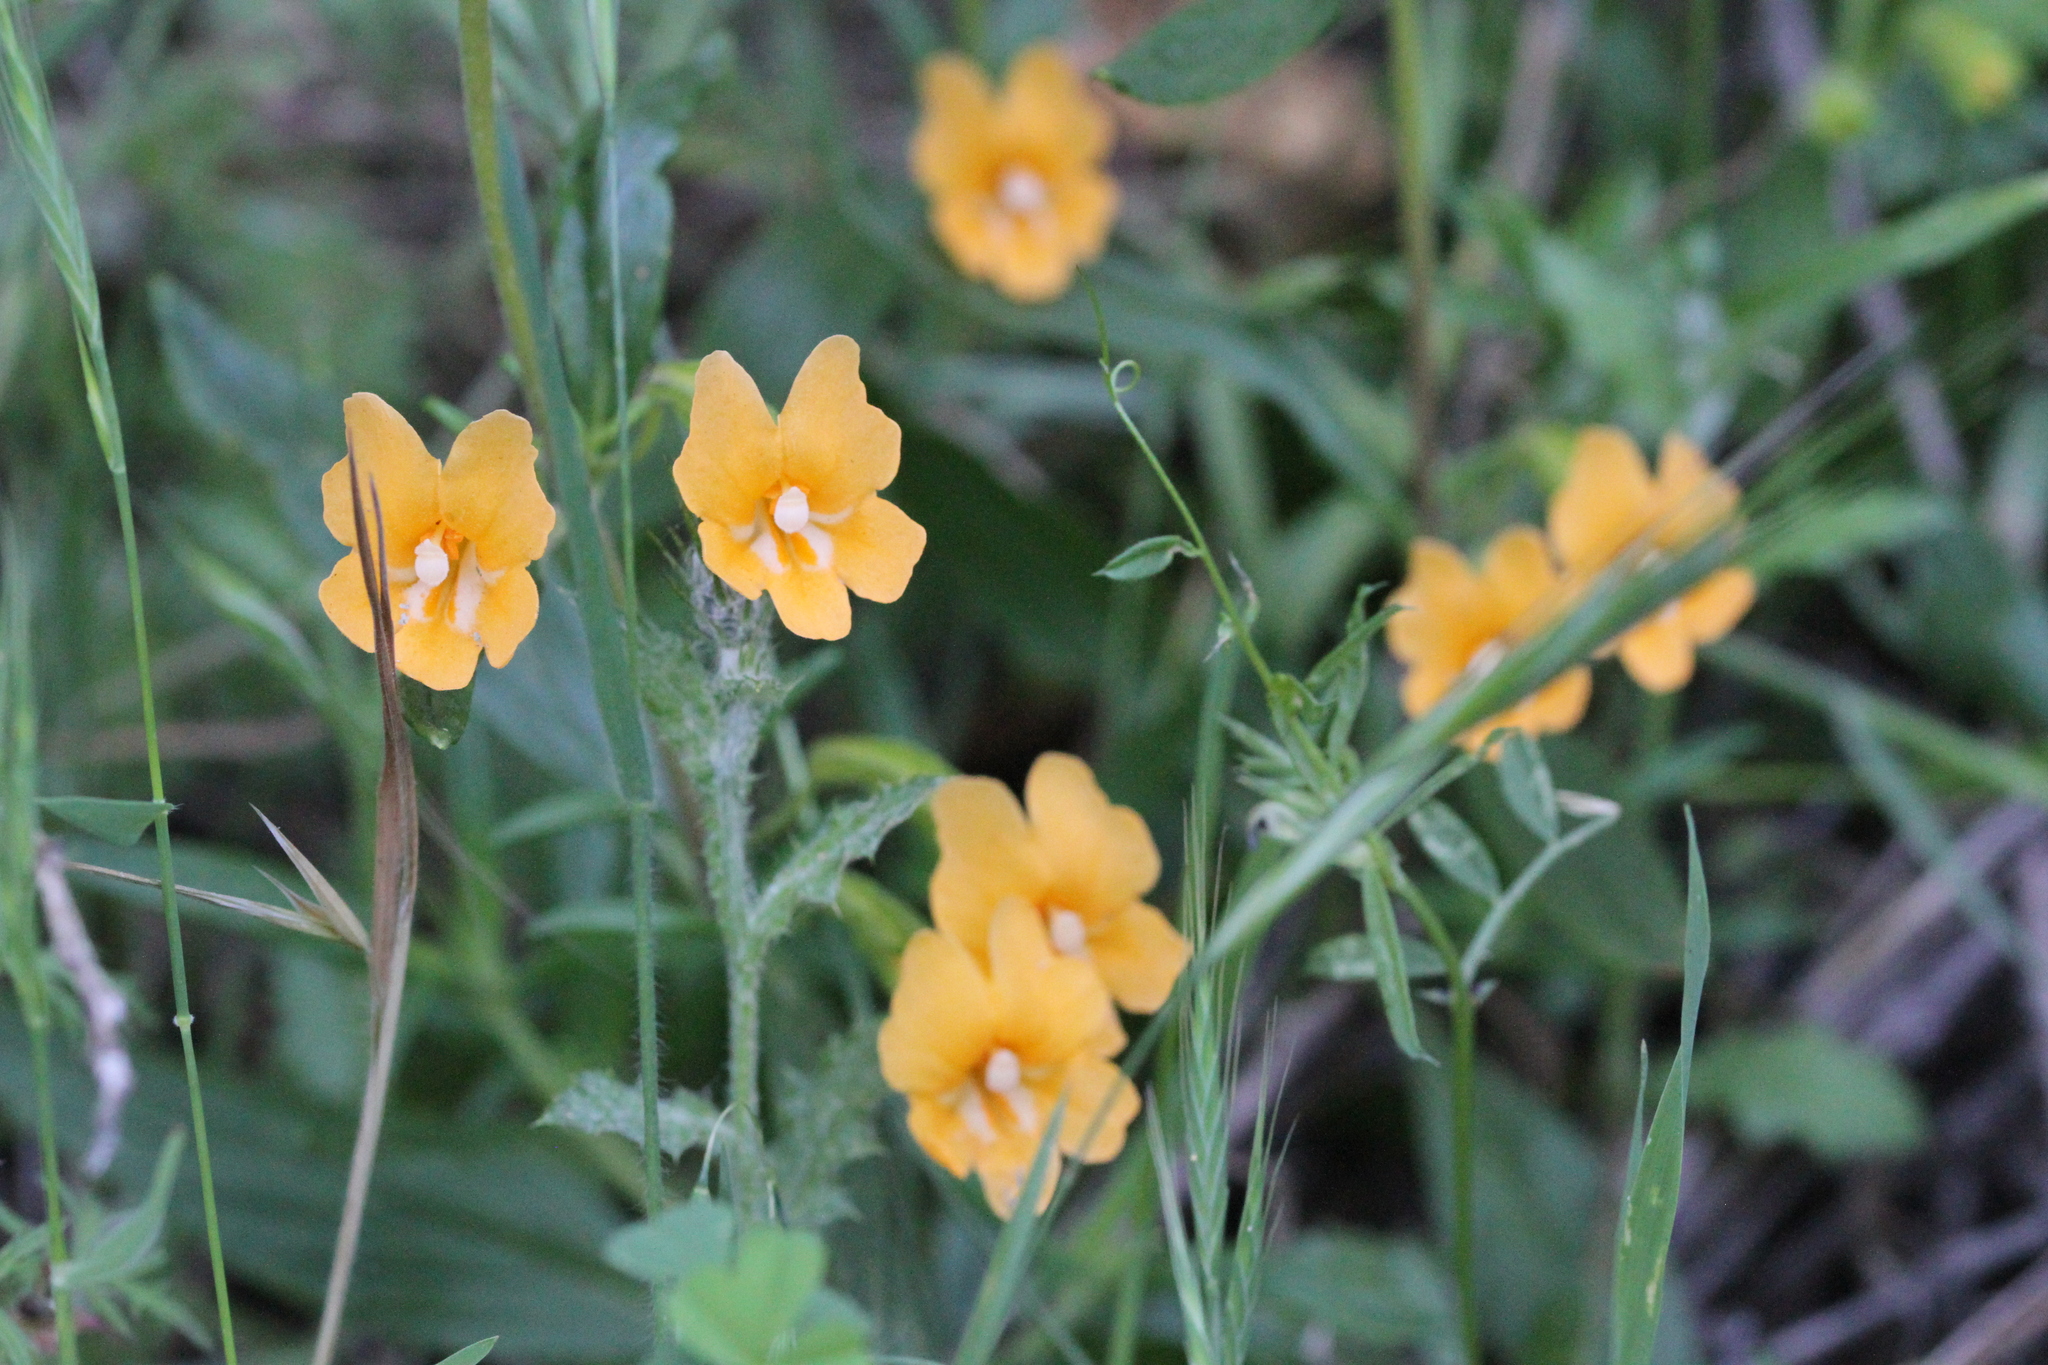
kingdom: Plantae
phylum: Tracheophyta
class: Magnoliopsida
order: Lamiales
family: Phrymaceae
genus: Diplacus
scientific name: Diplacus aurantiacus
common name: Bush monkey-flower
